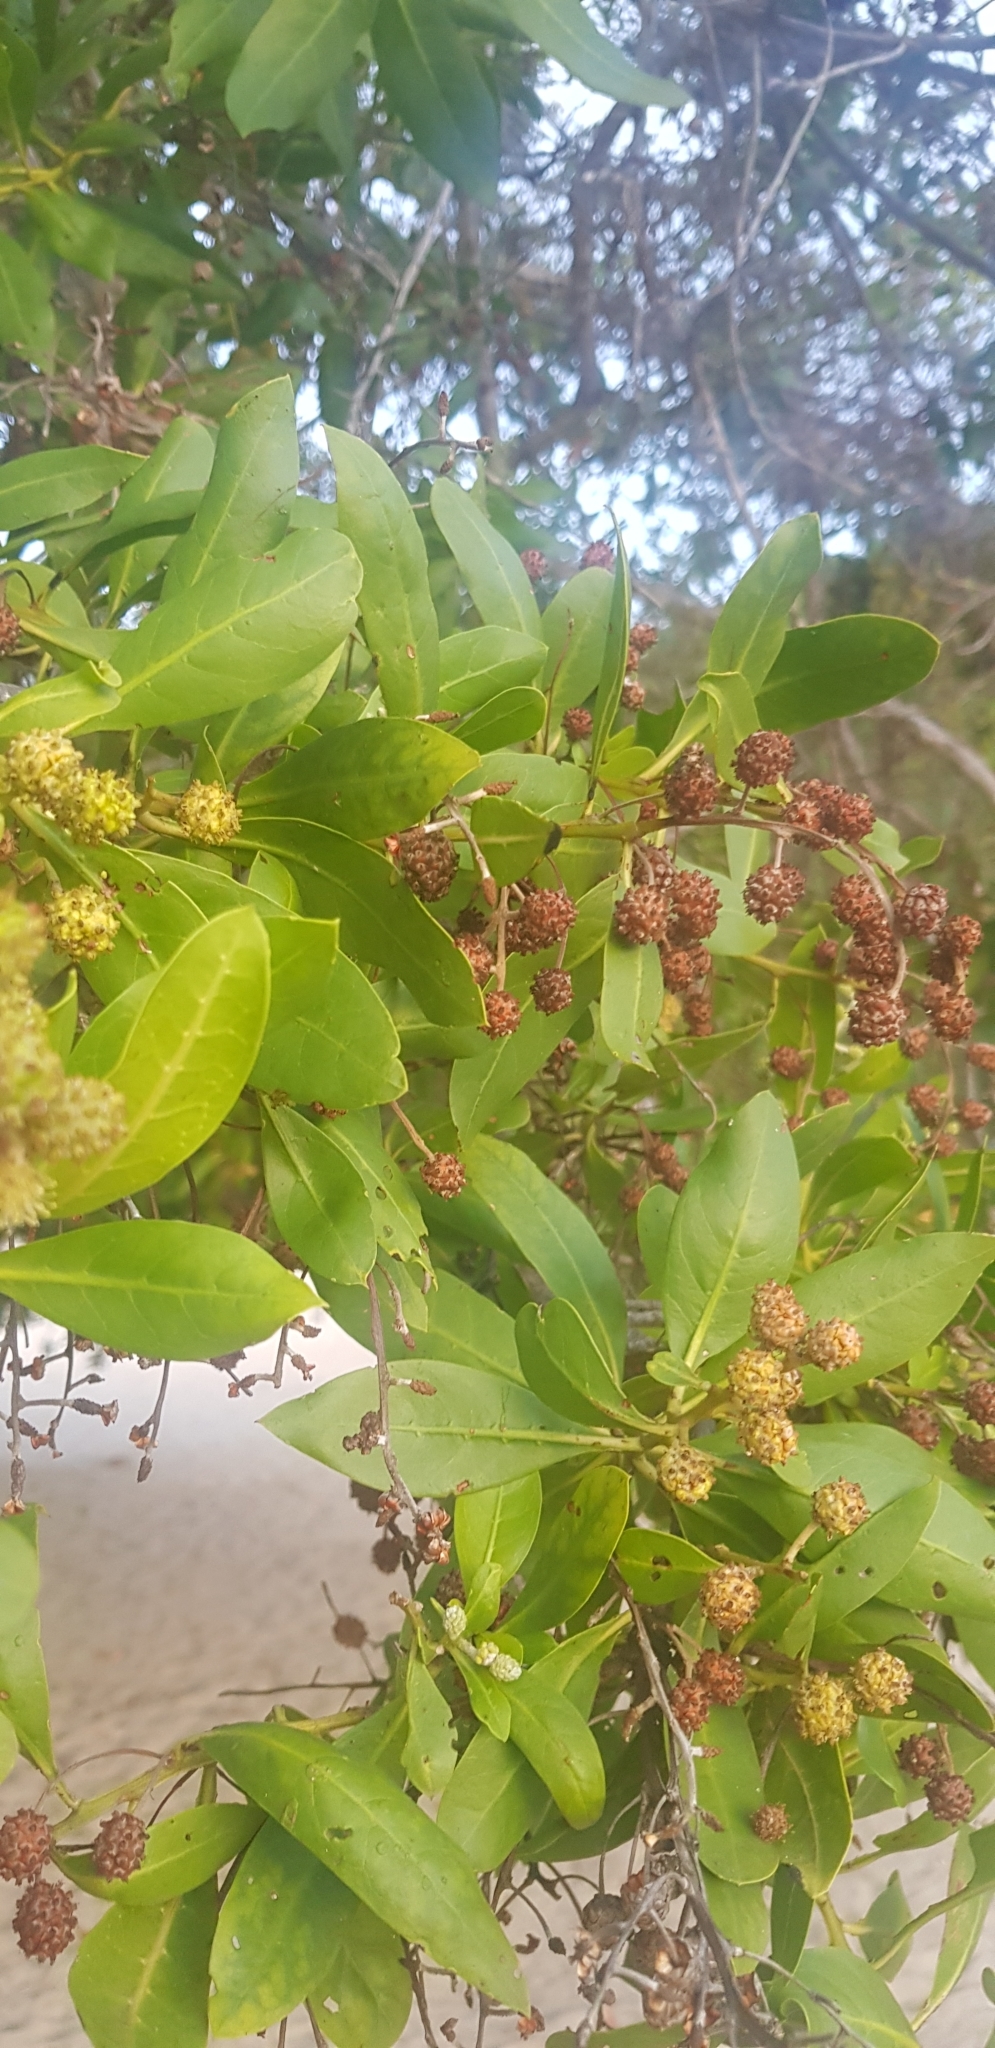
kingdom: Plantae
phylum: Tracheophyta
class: Magnoliopsida
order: Myrtales
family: Combretaceae
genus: Conocarpus
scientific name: Conocarpus erectus
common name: Button mangrove
